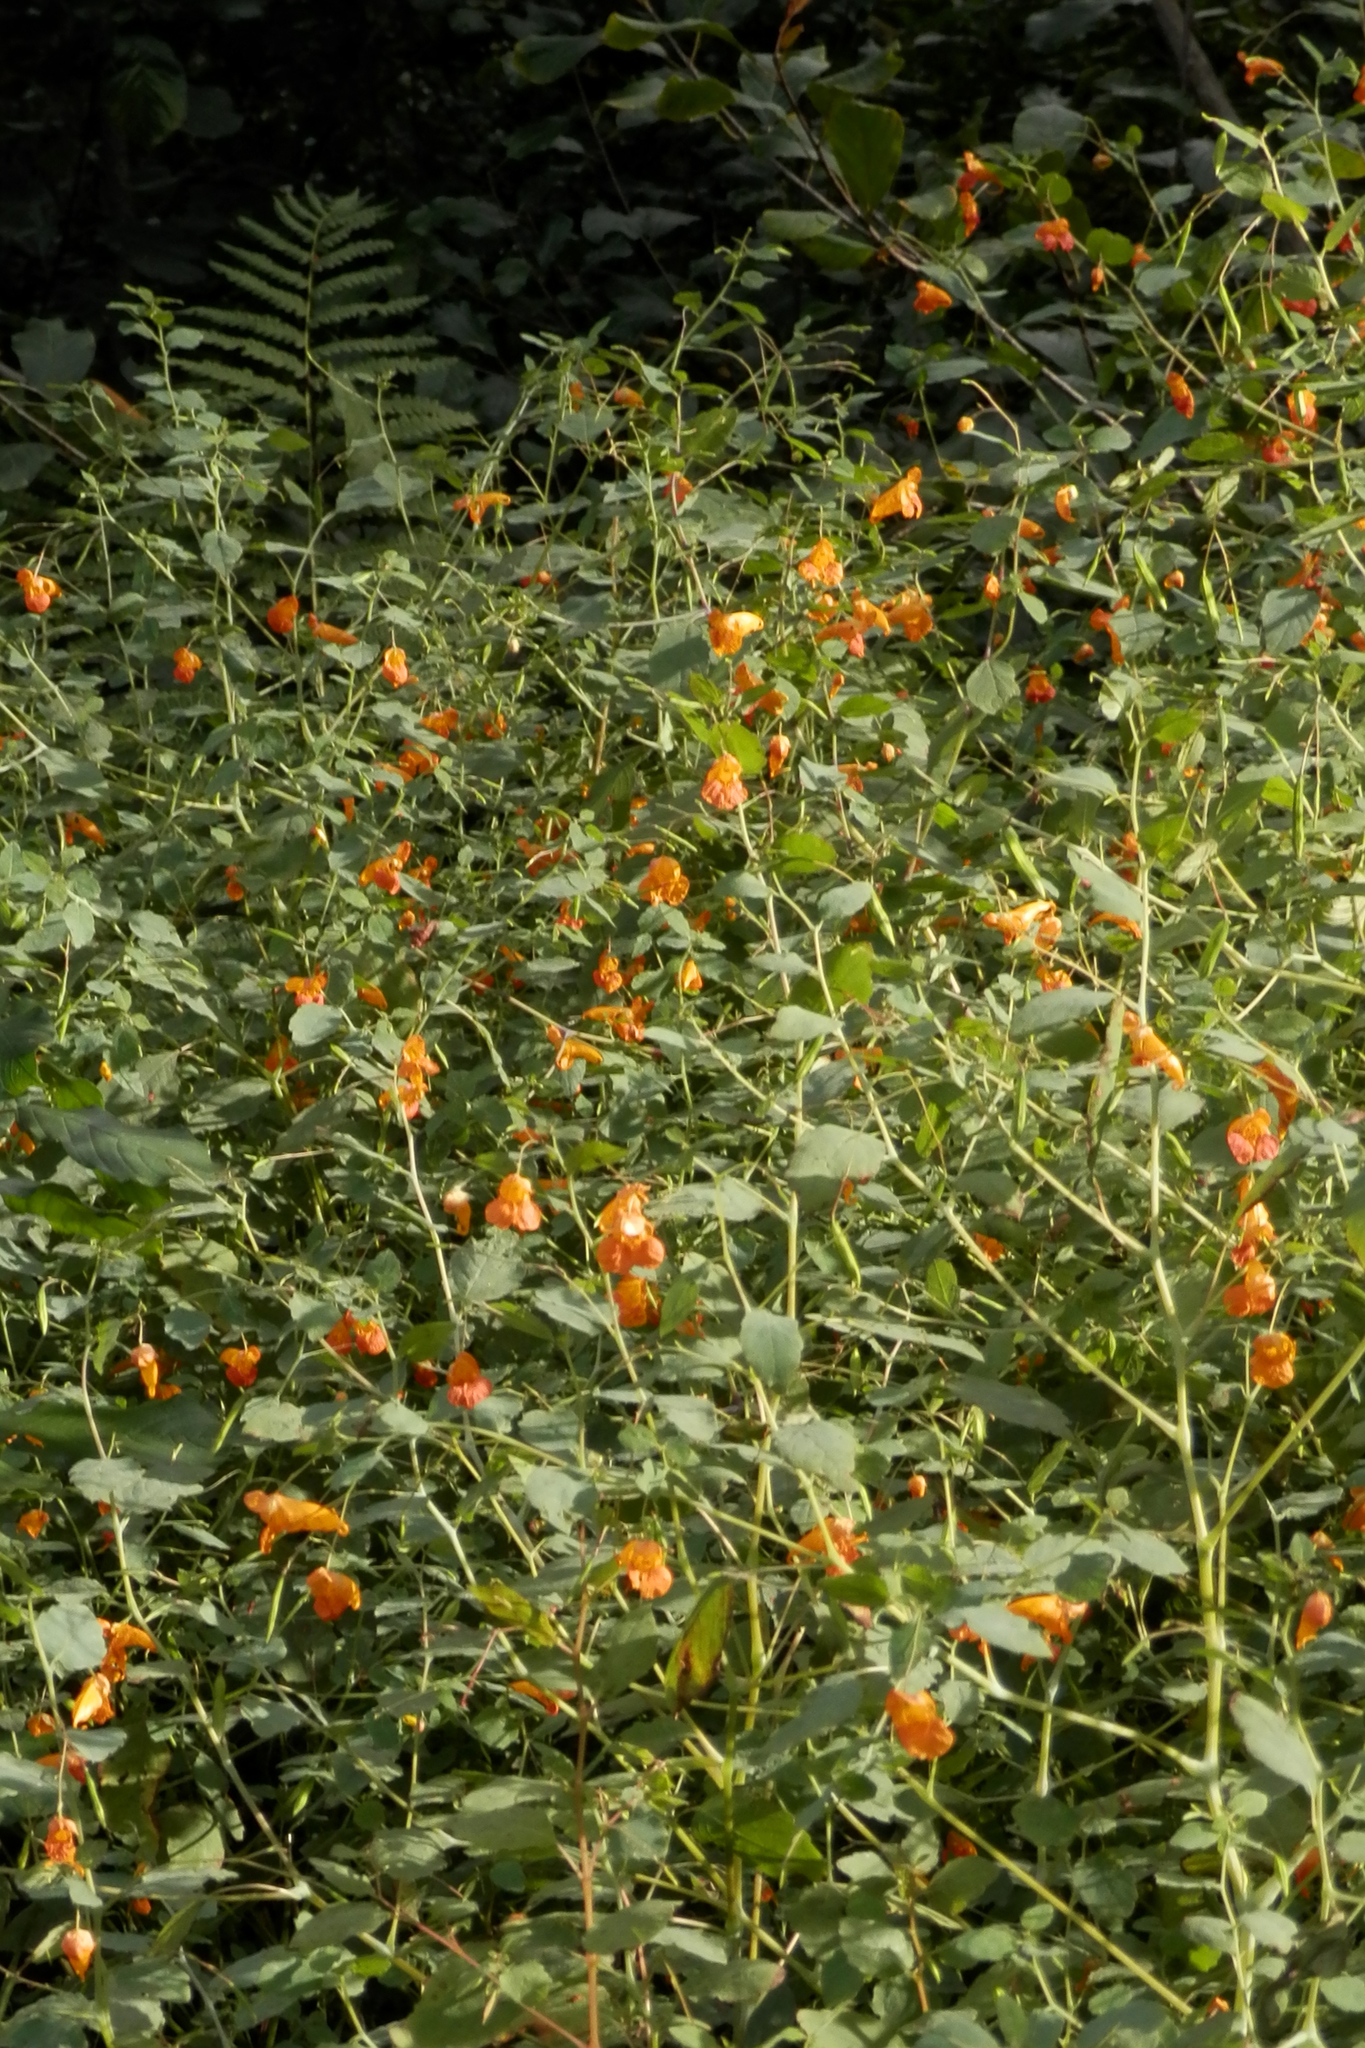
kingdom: Plantae
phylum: Tracheophyta
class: Magnoliopsida
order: Ericales
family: Balsaminaceae
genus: Impatiens
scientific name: Impatiens capensis
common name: Orange balsam
